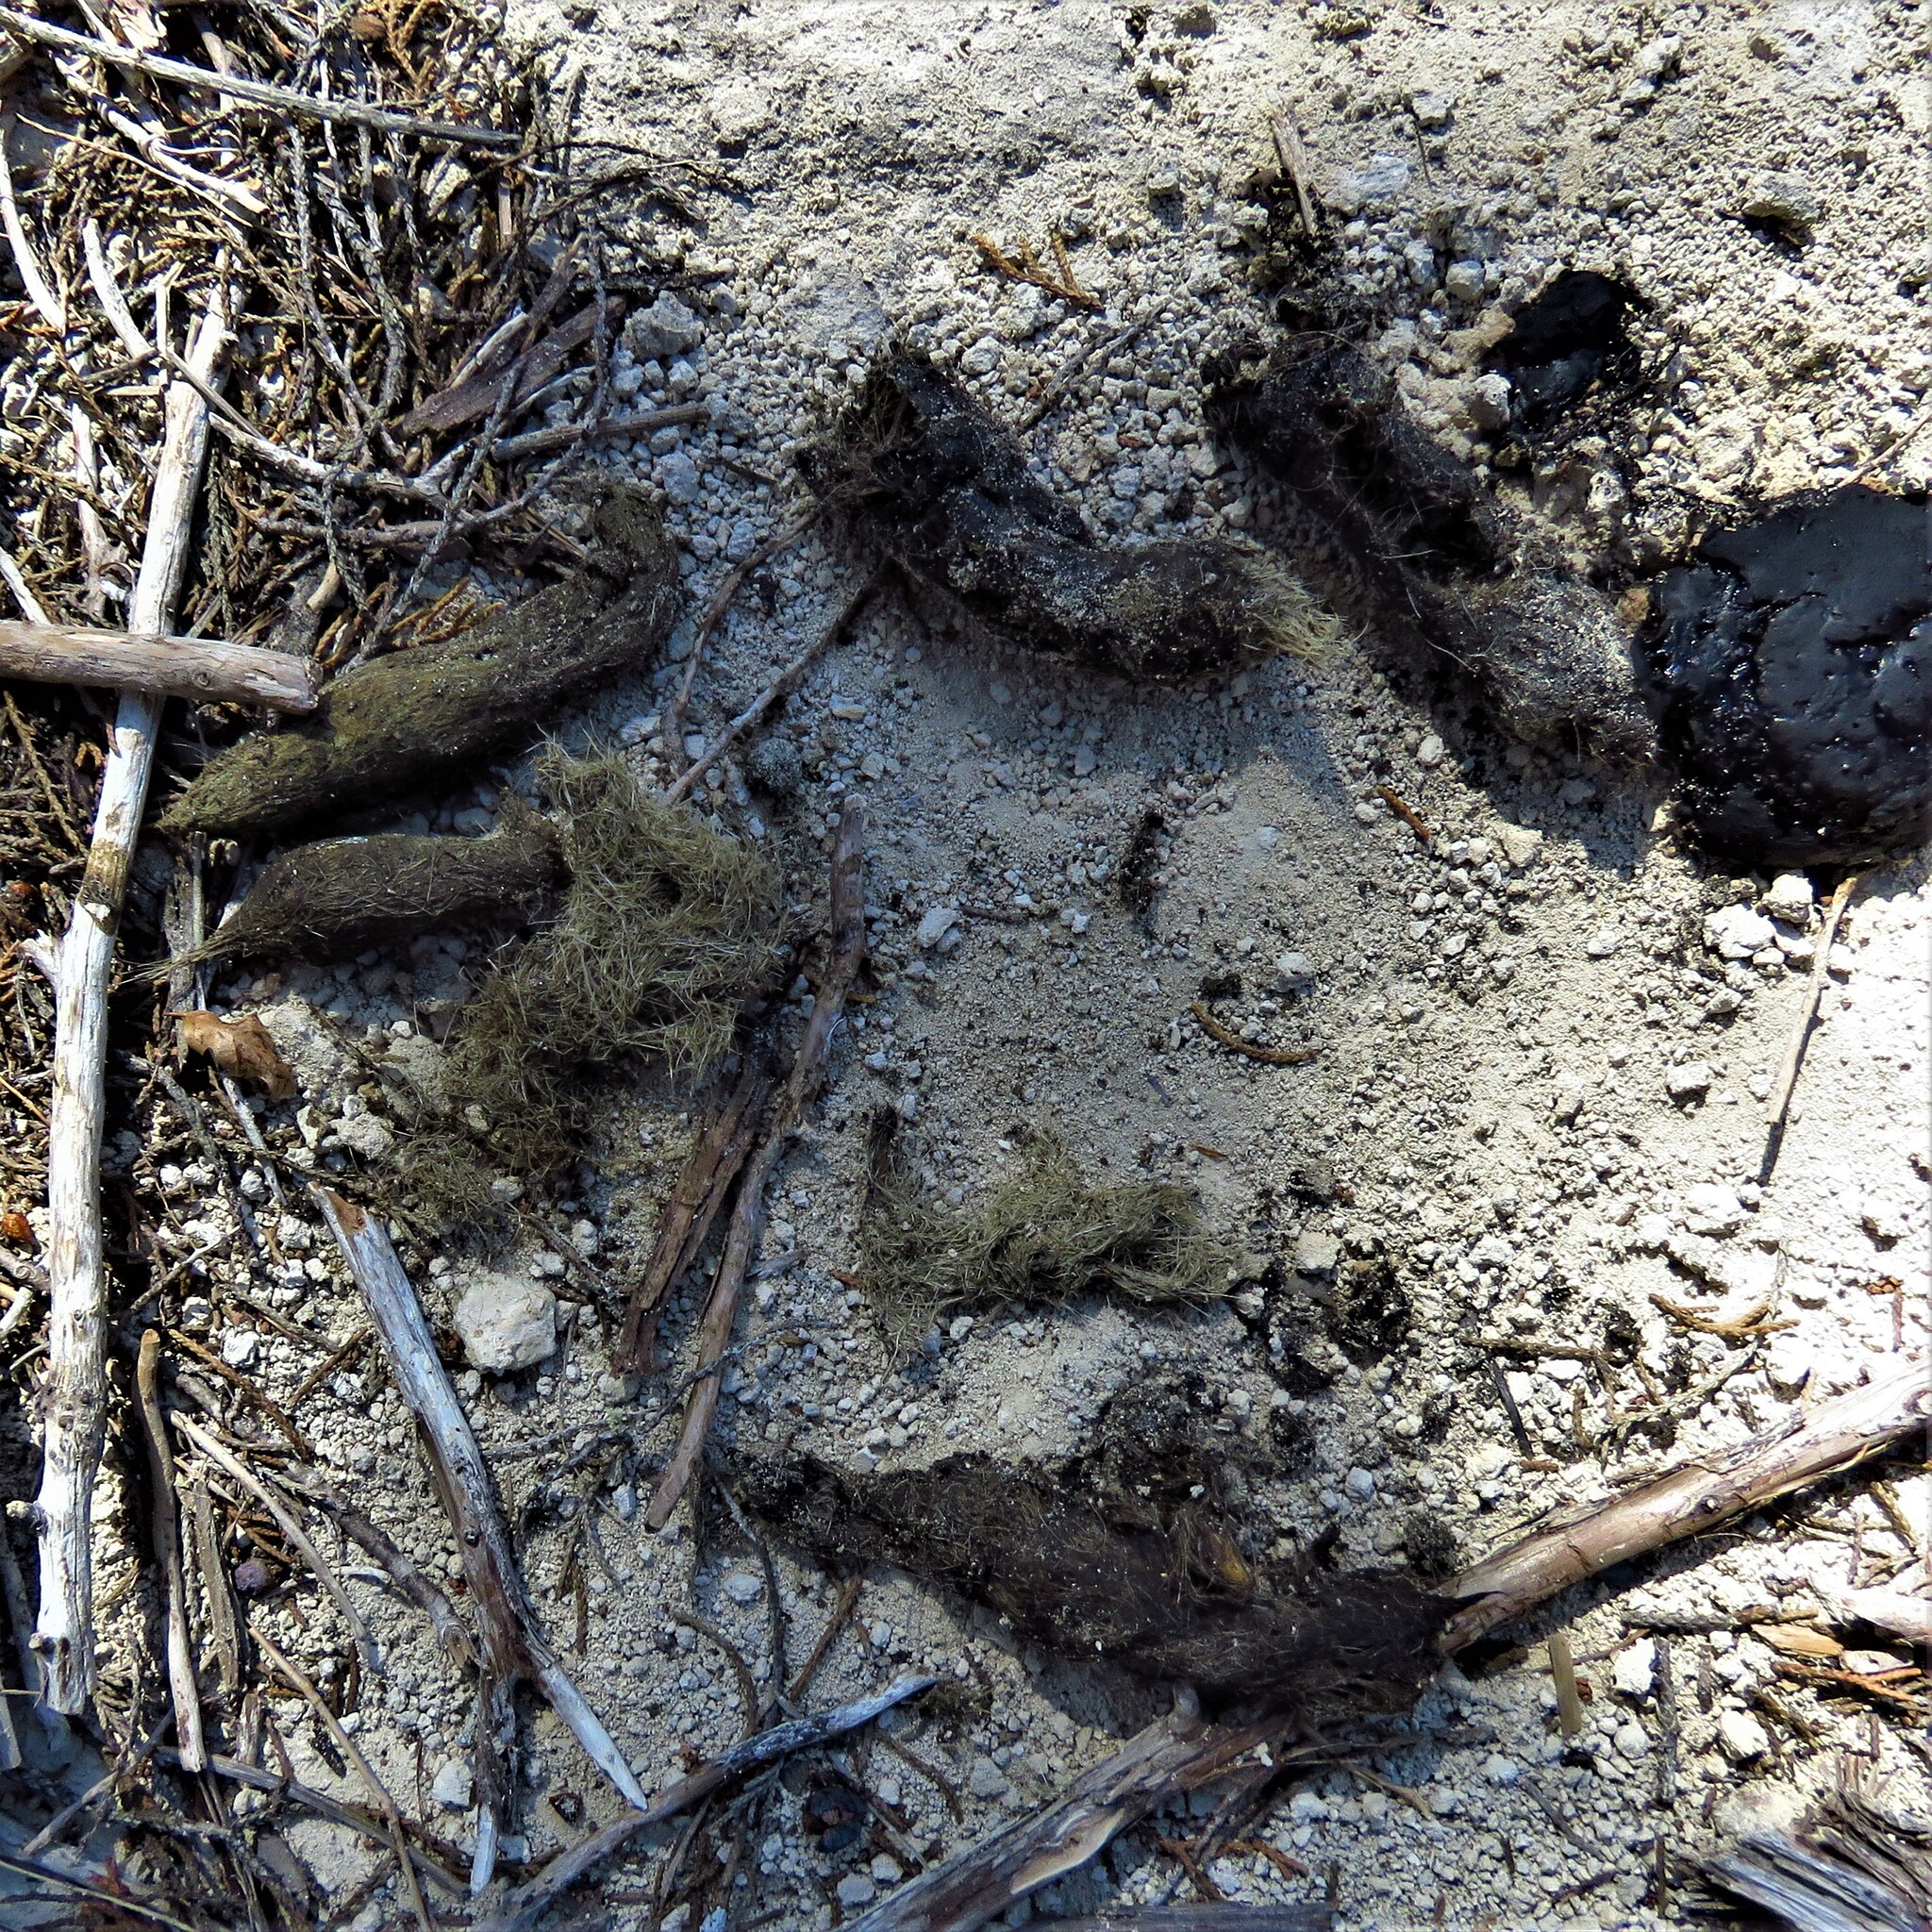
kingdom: Animalia
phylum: Chordata
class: Mammalia
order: Carnivora
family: Canidae
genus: Canis
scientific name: Canis latrans
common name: Coyote
